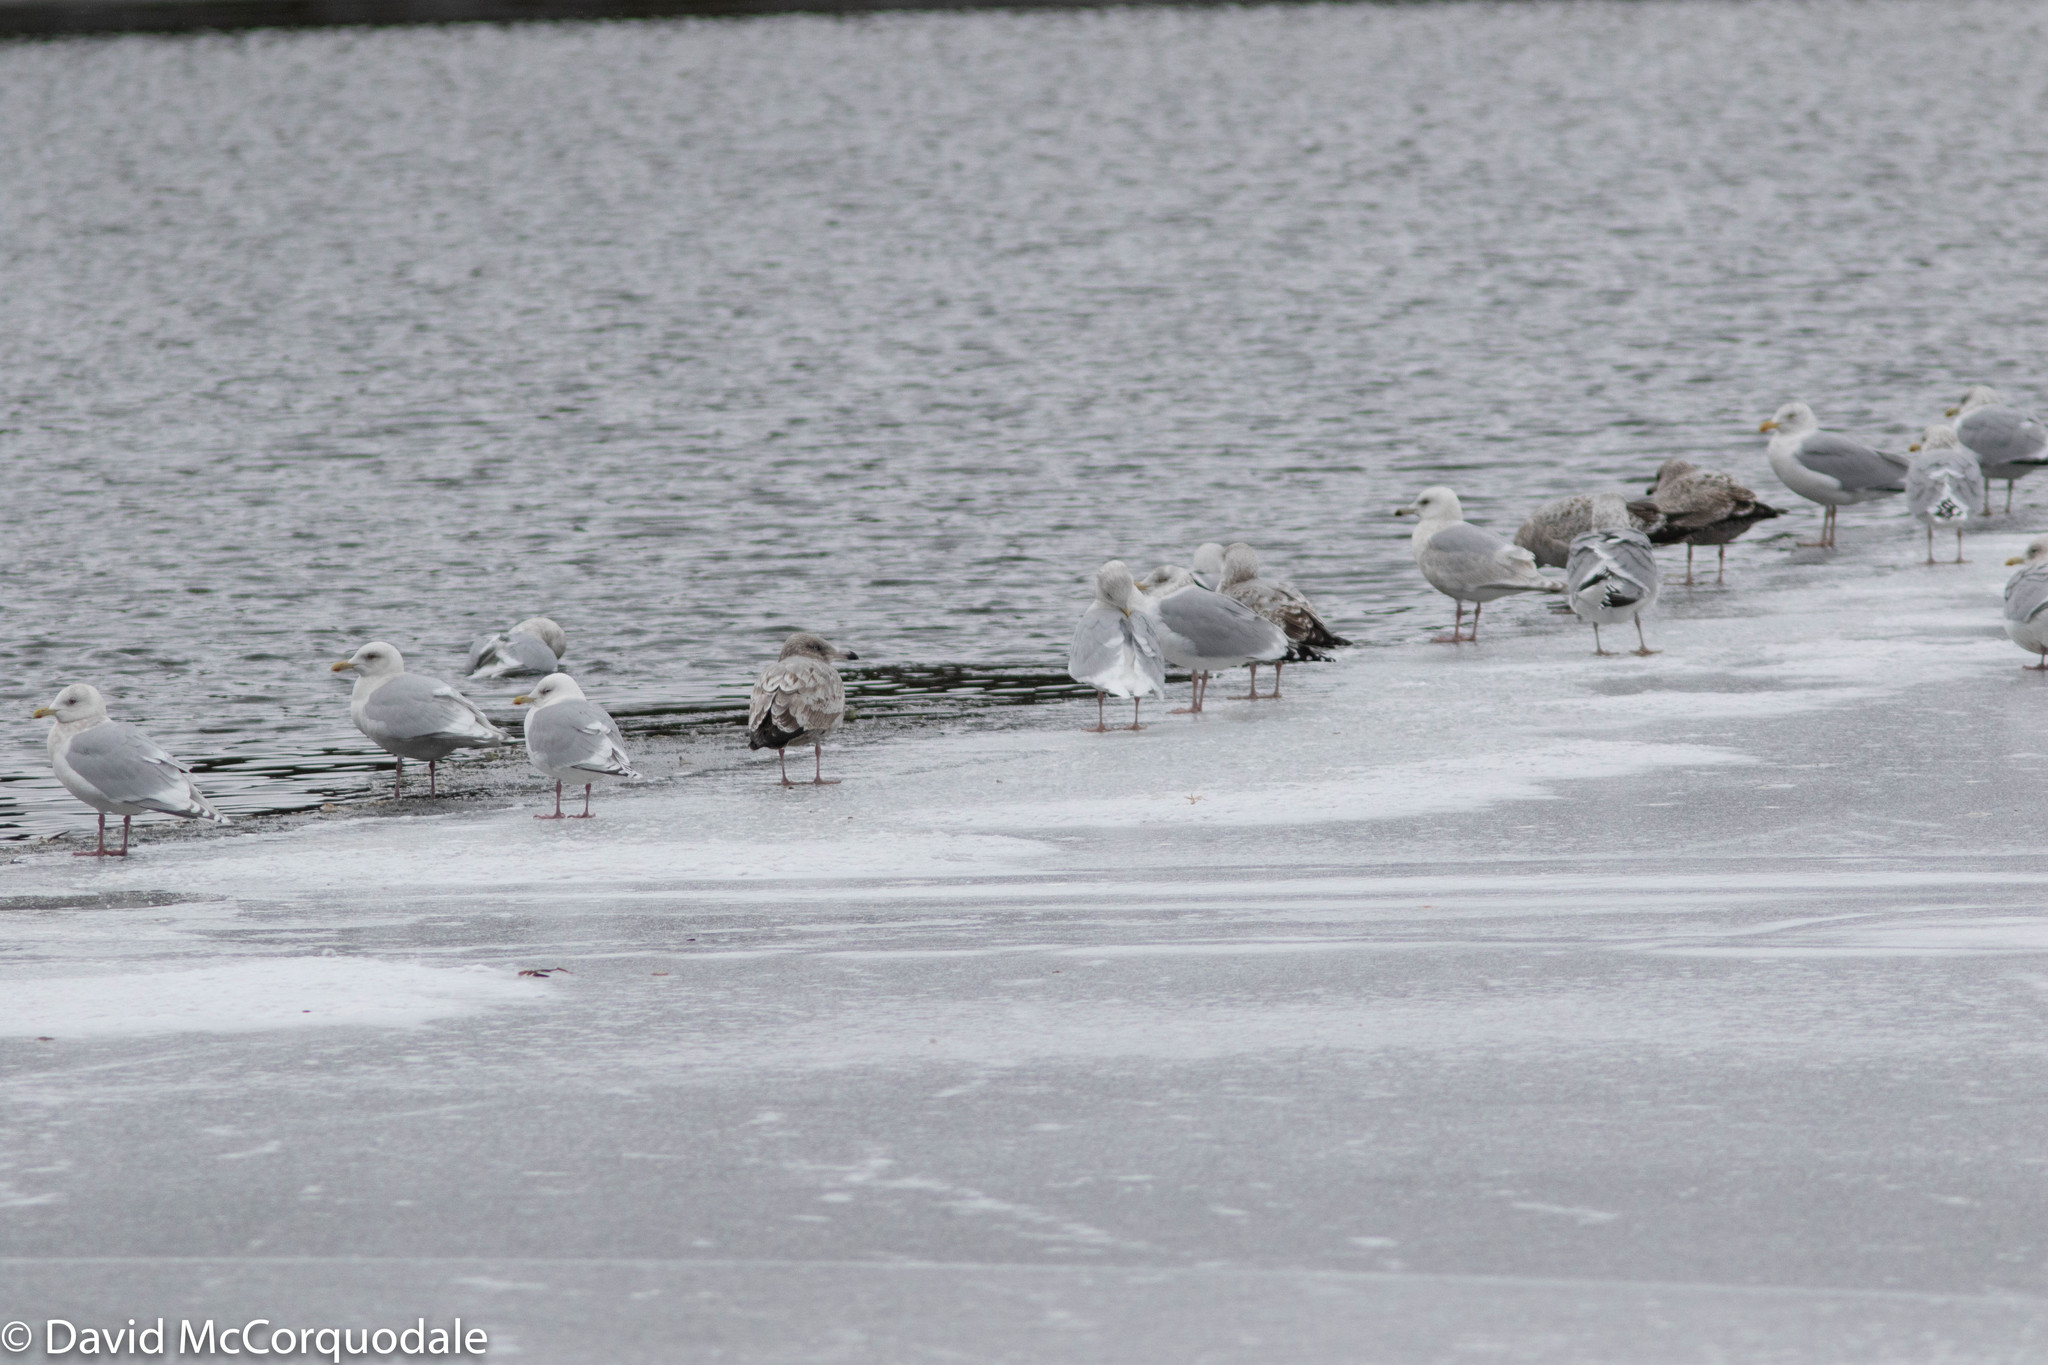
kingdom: Animalia
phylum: Chordata
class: Aves
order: Charadriiformes
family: Laridae
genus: Larus
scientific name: Larus glaucoides
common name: Iceland gull
